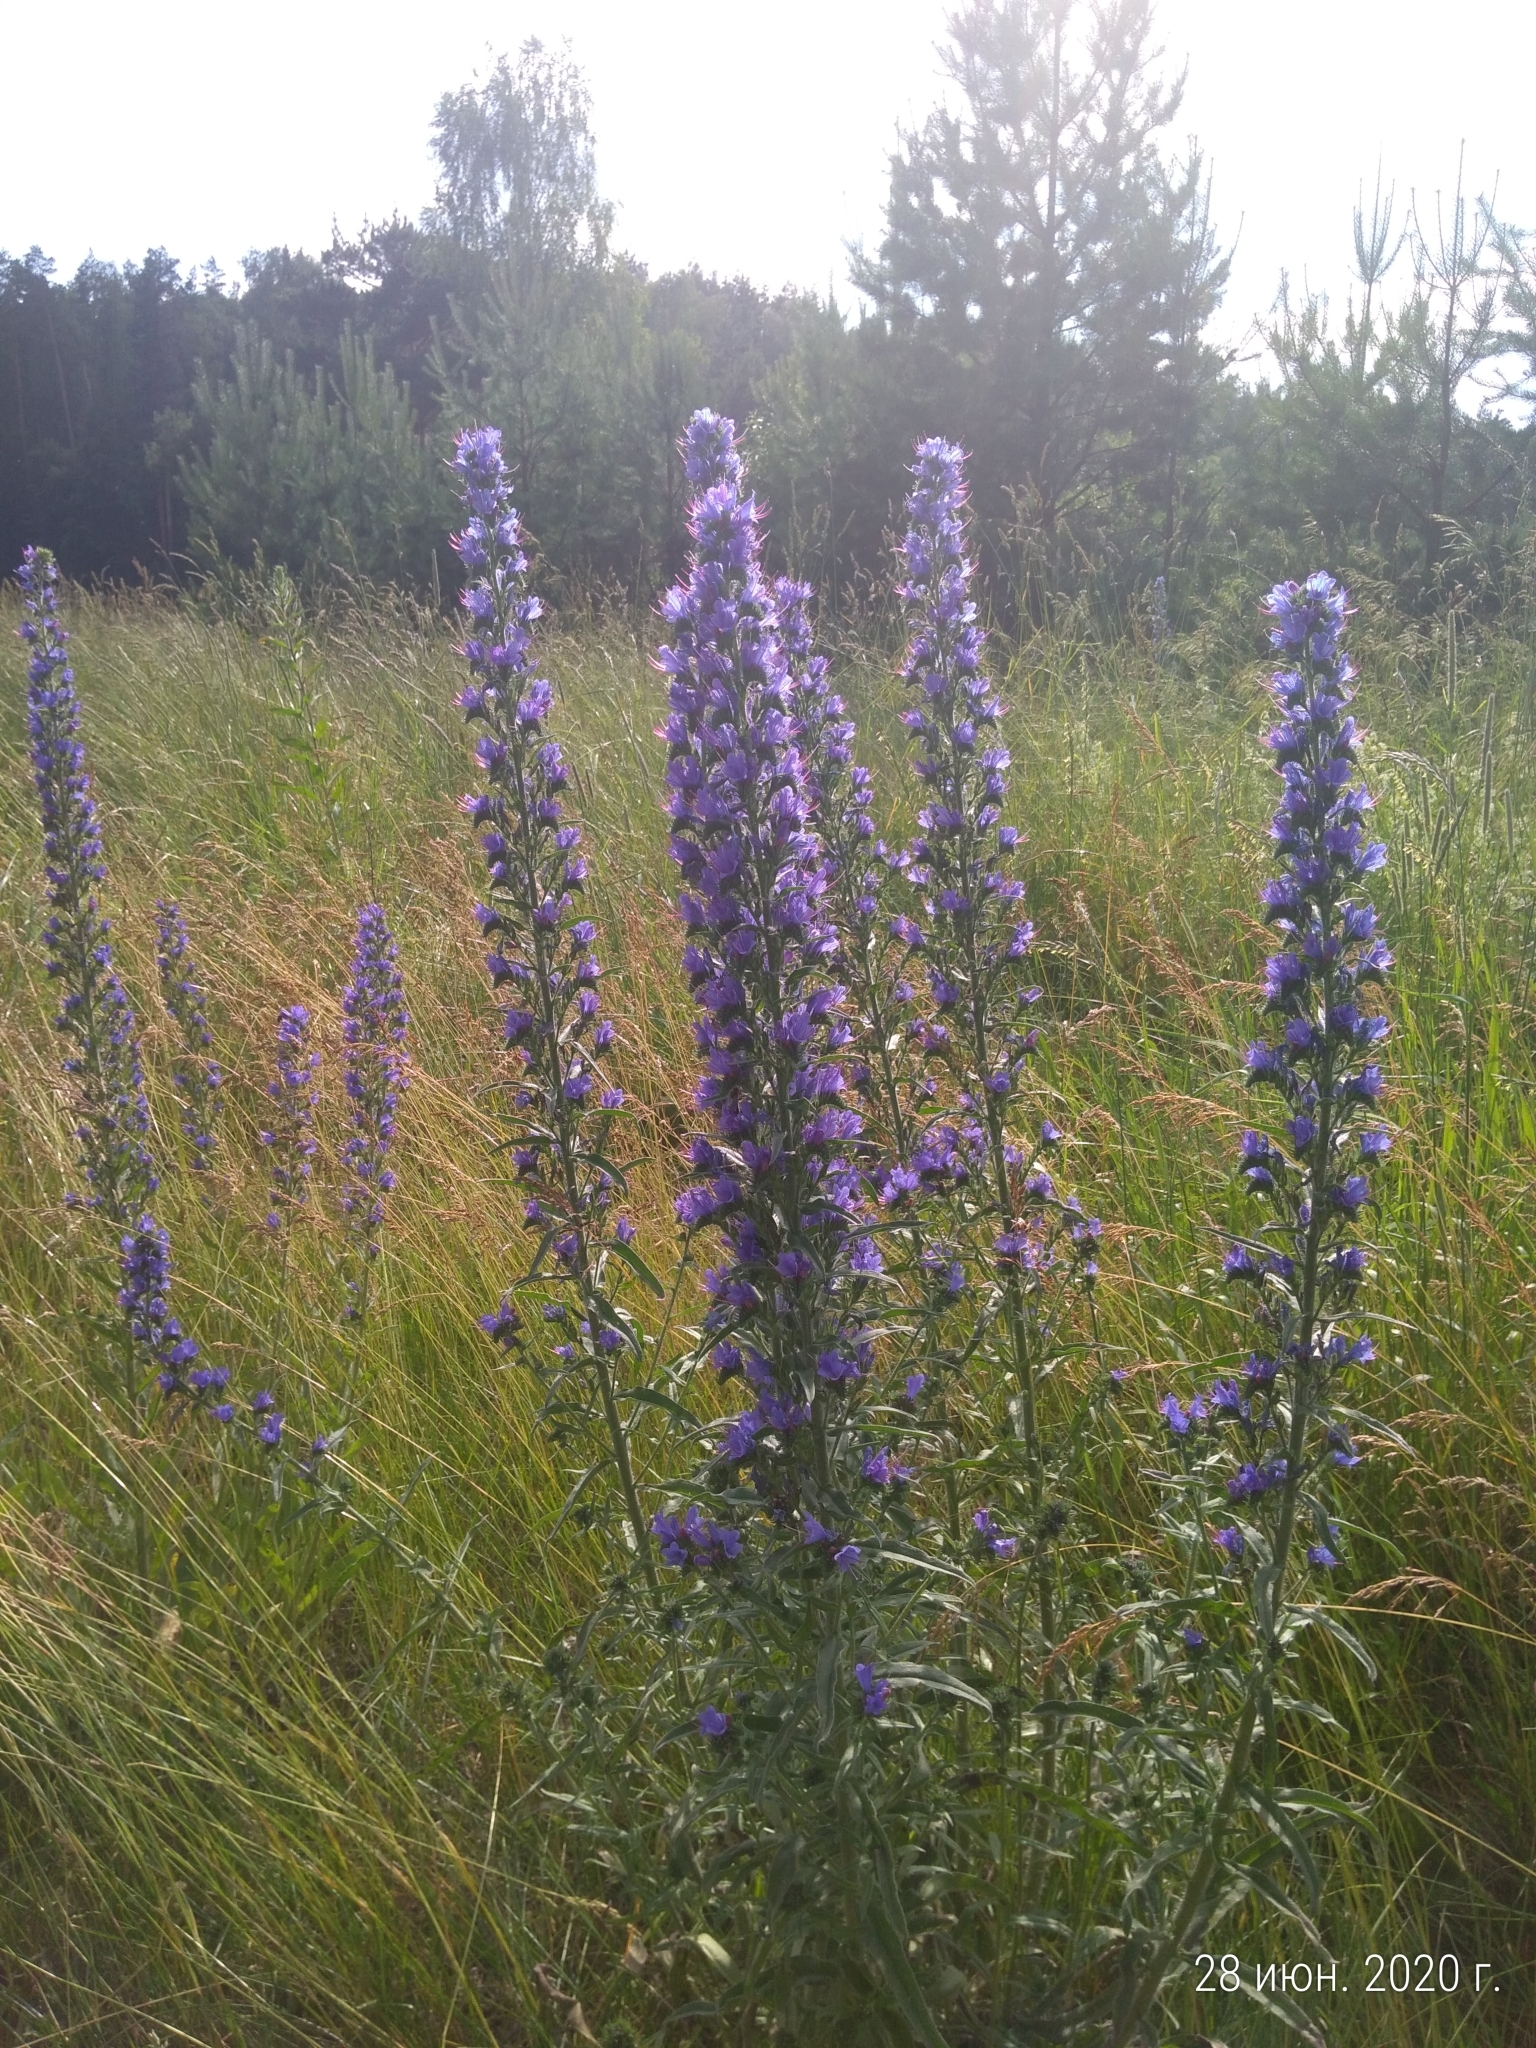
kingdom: Plantae
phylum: Tracheophyta
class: Magnoliopsida
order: Boraginales
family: Boraginaceae
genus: Echium
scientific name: Echium vulgare
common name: Common viper's bugloss
